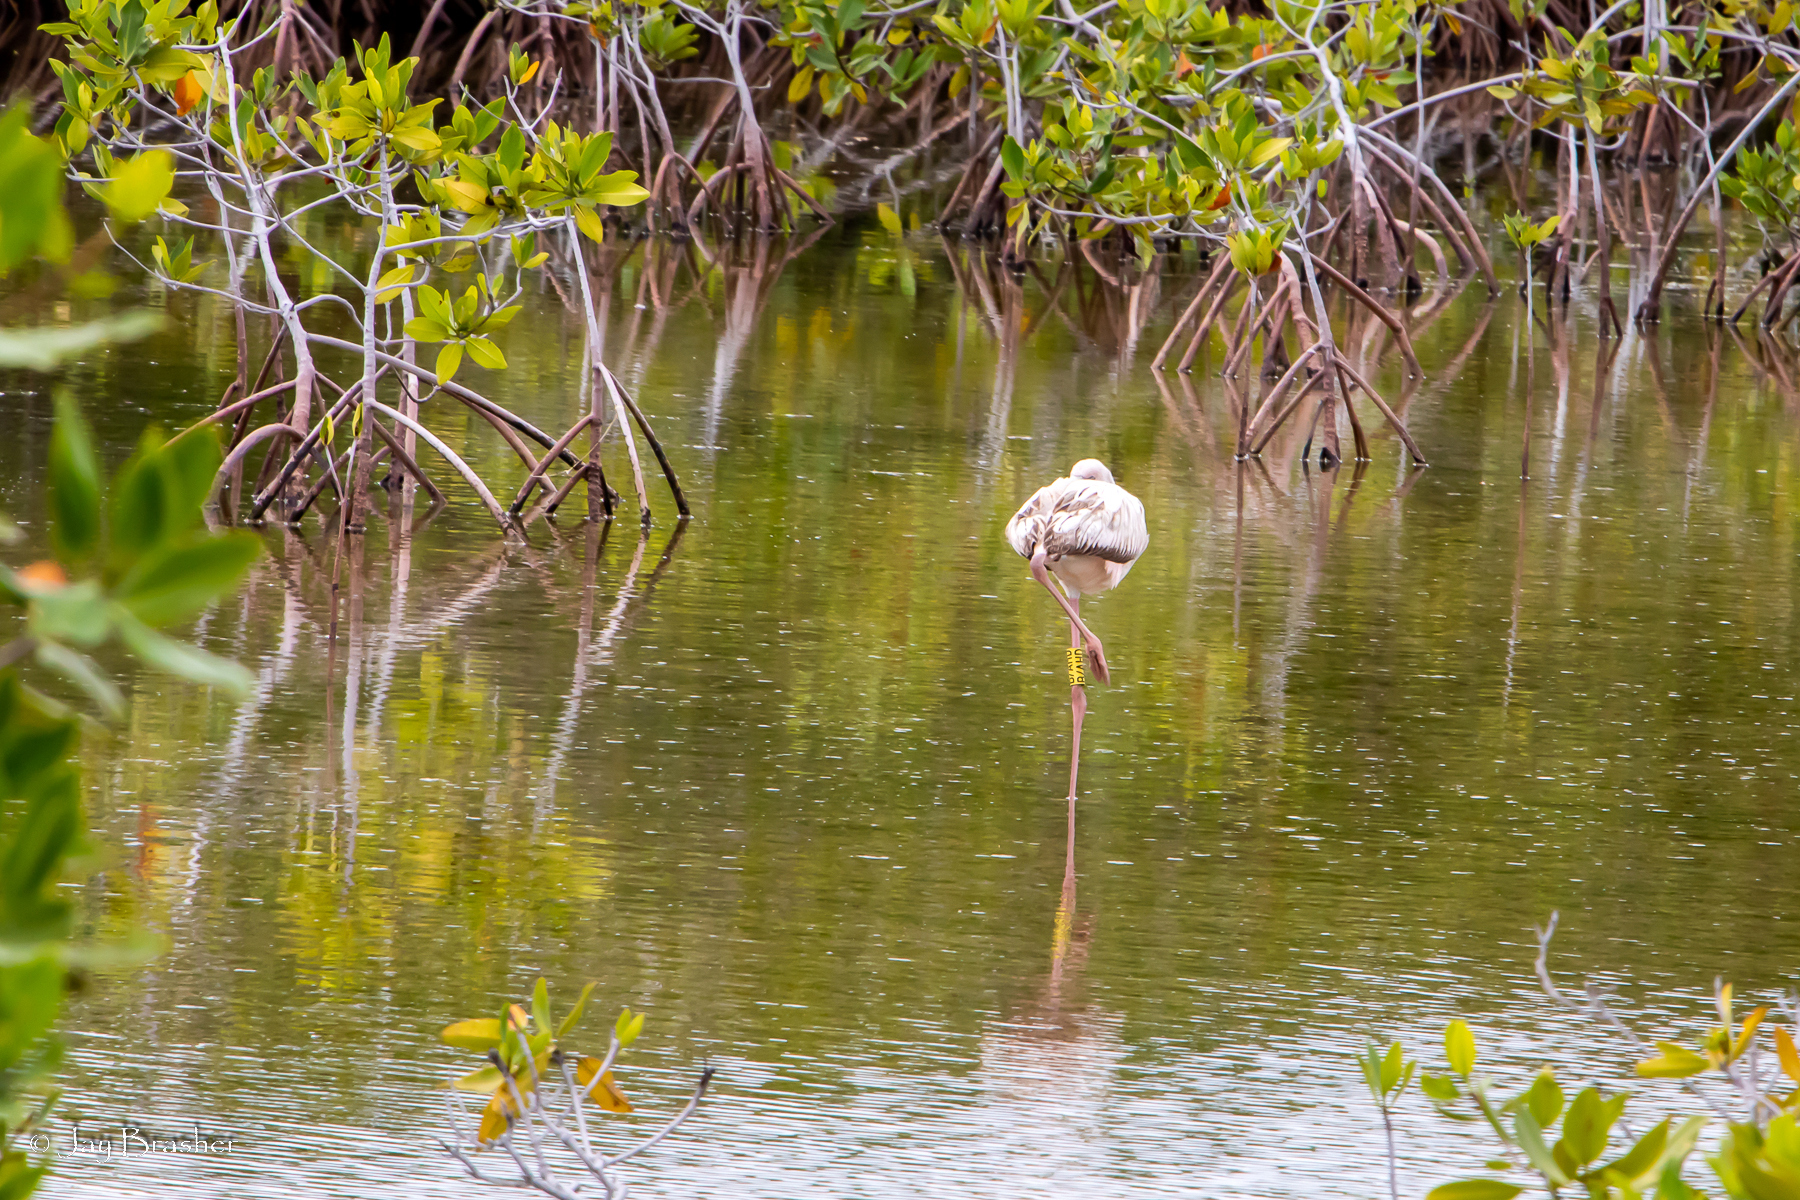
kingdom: Animalia
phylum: Chordata
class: Aves
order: Phoenicopteriformes
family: Phoenicopteridae
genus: Phoenicopterus
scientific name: Phoenicopterus ruber
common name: American flamingo
